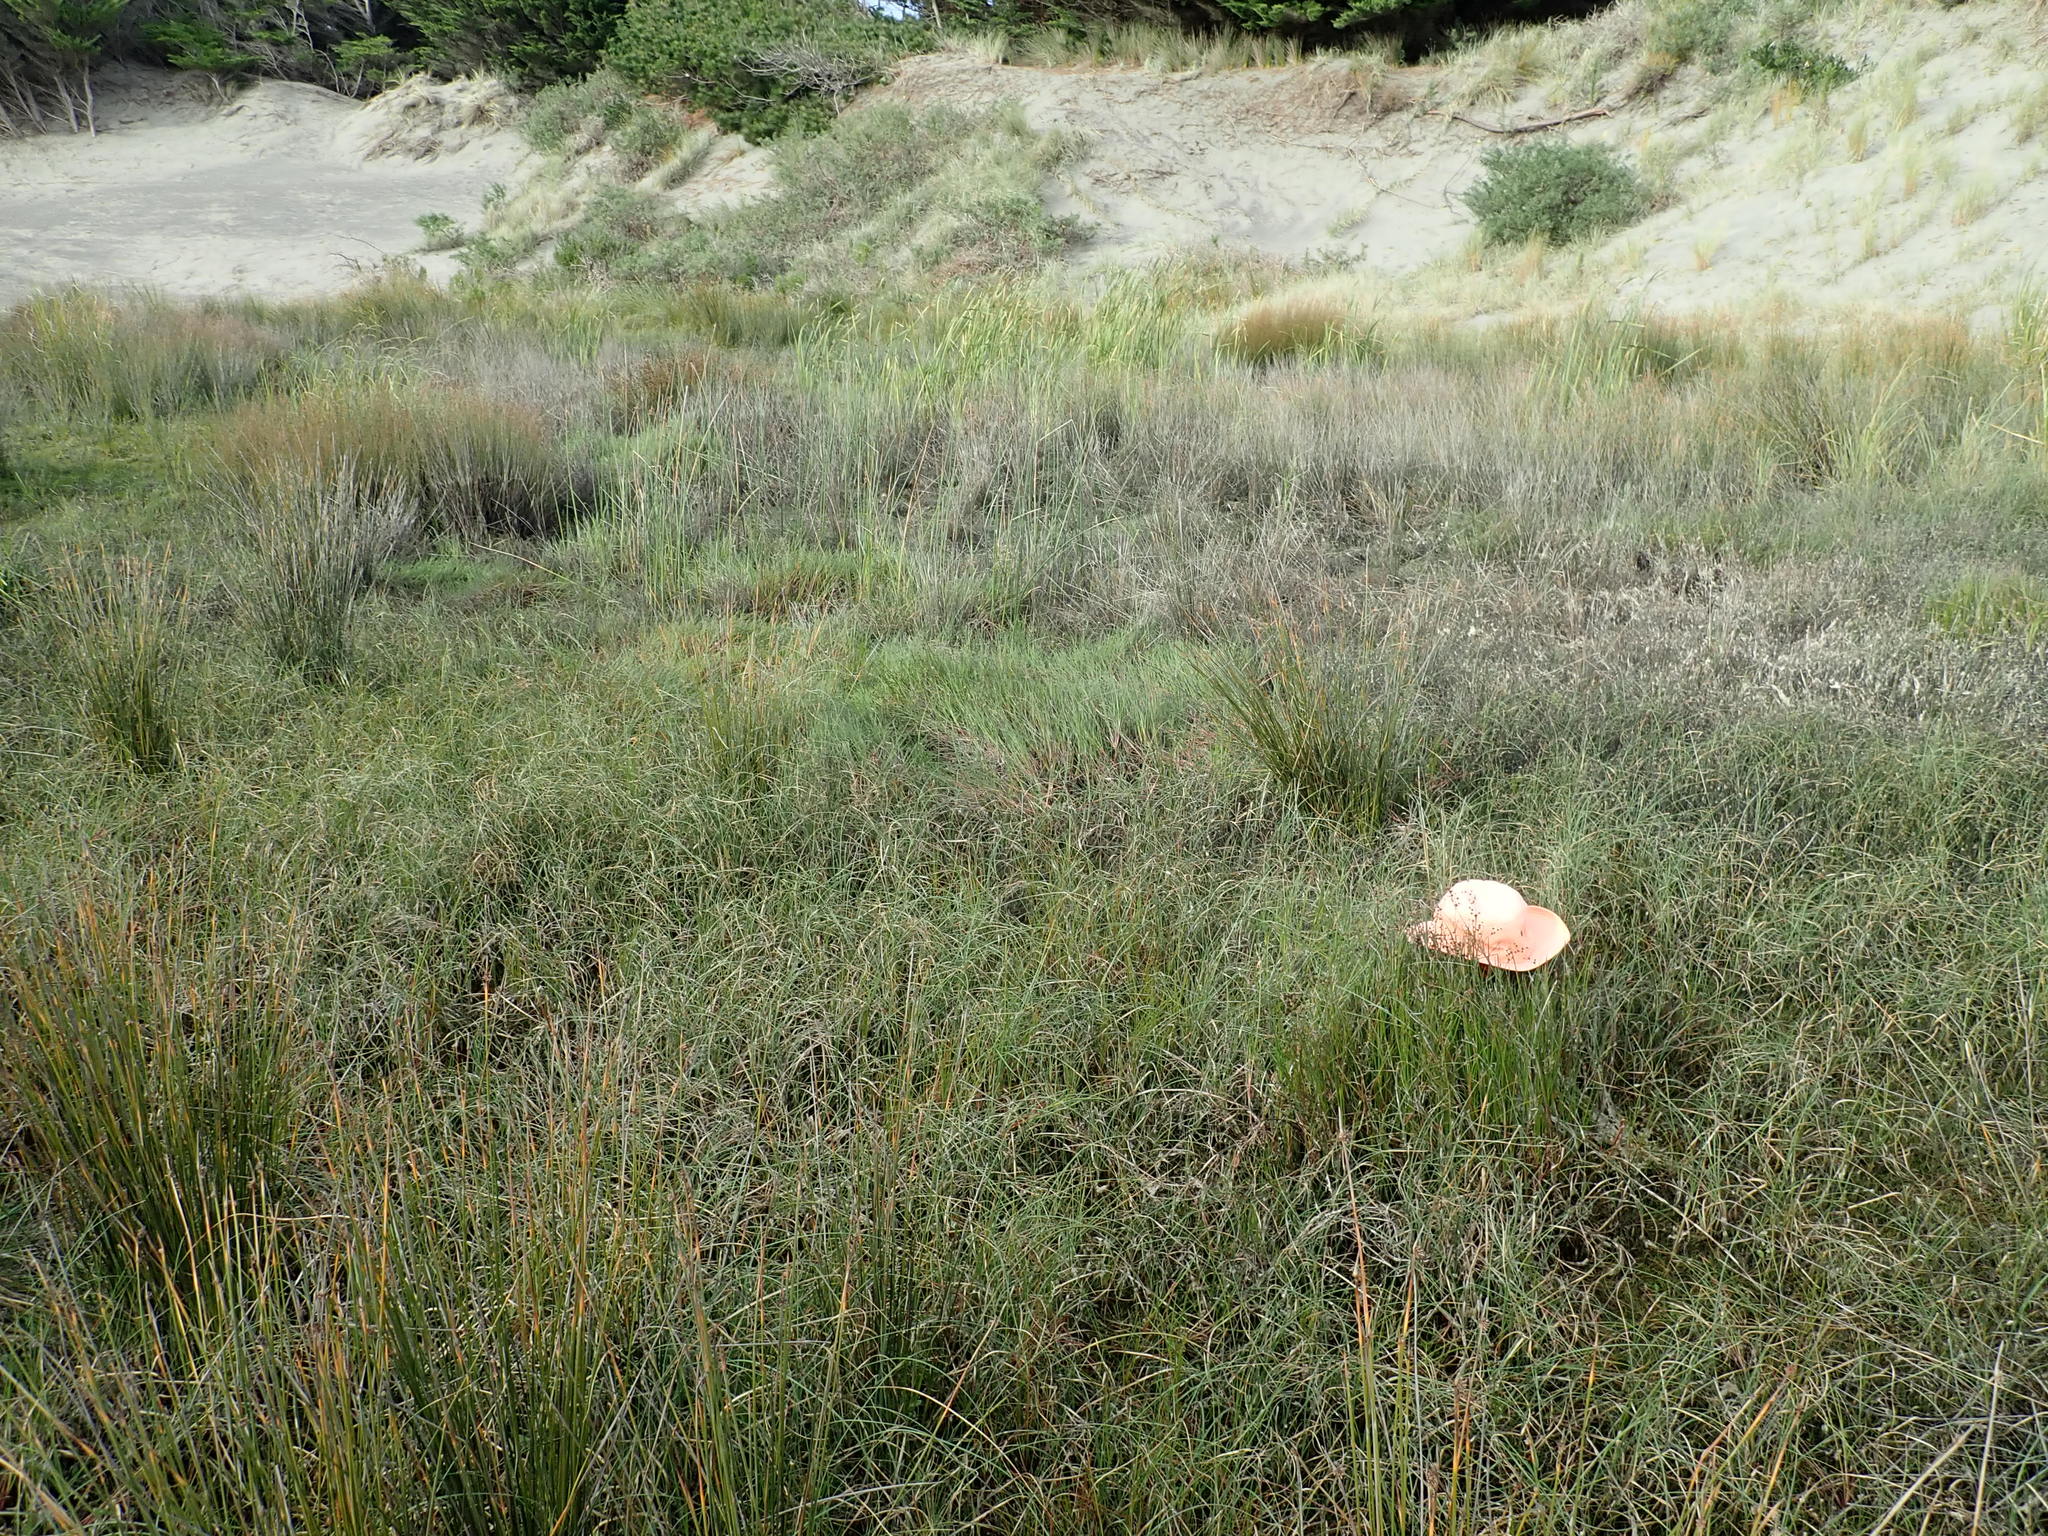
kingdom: Plantae
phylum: Tracheophyta
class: Liliopsida
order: Poales
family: Juncaceae
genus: Juncus
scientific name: Juncus articulatus
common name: Jointed rush
